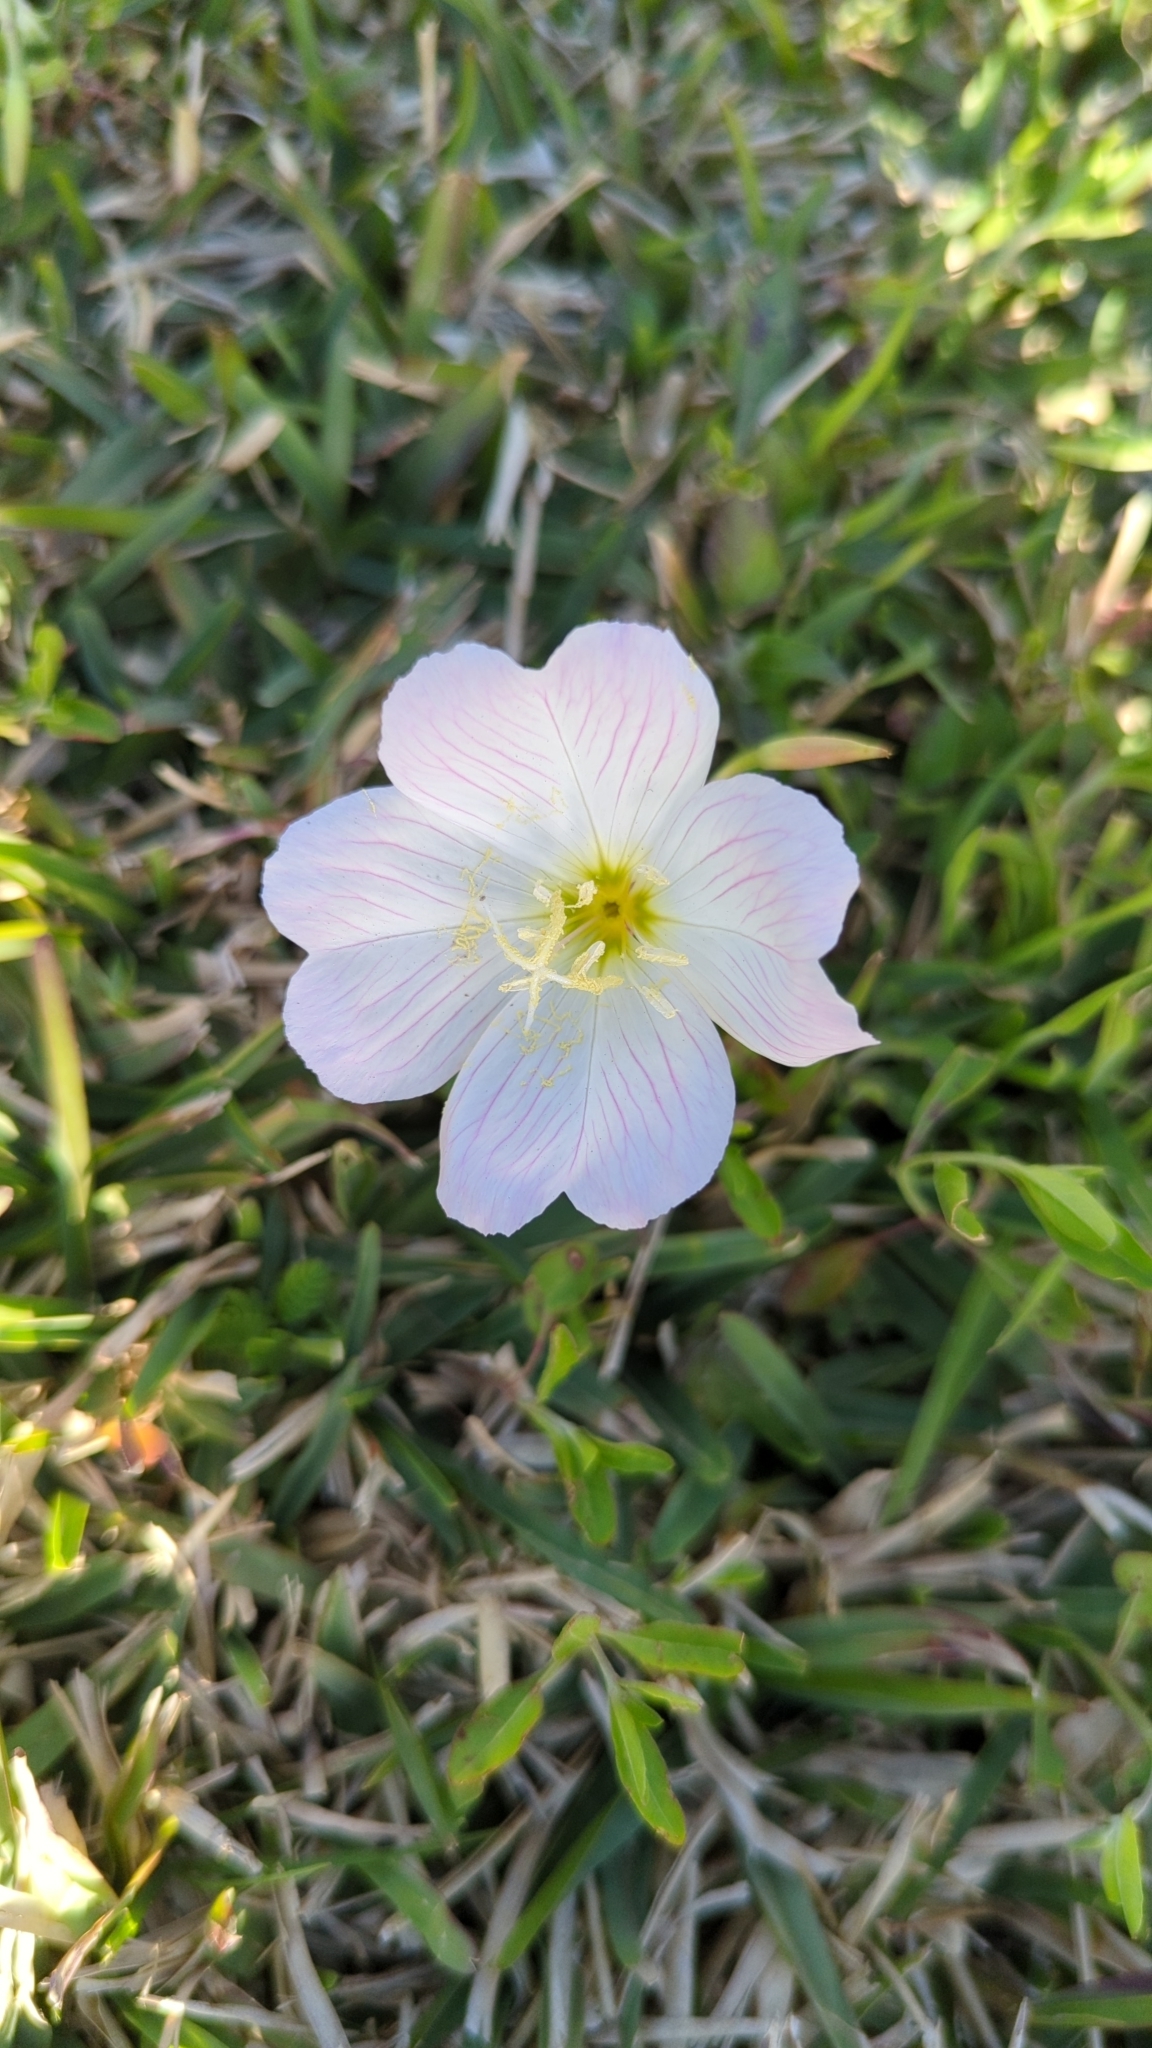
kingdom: Plantae
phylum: Tracheophyta
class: Magnoliopsida
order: Myrtales
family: Onagraceae
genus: Oenothera
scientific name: Oenothera speciosa
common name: White evening-primrose
